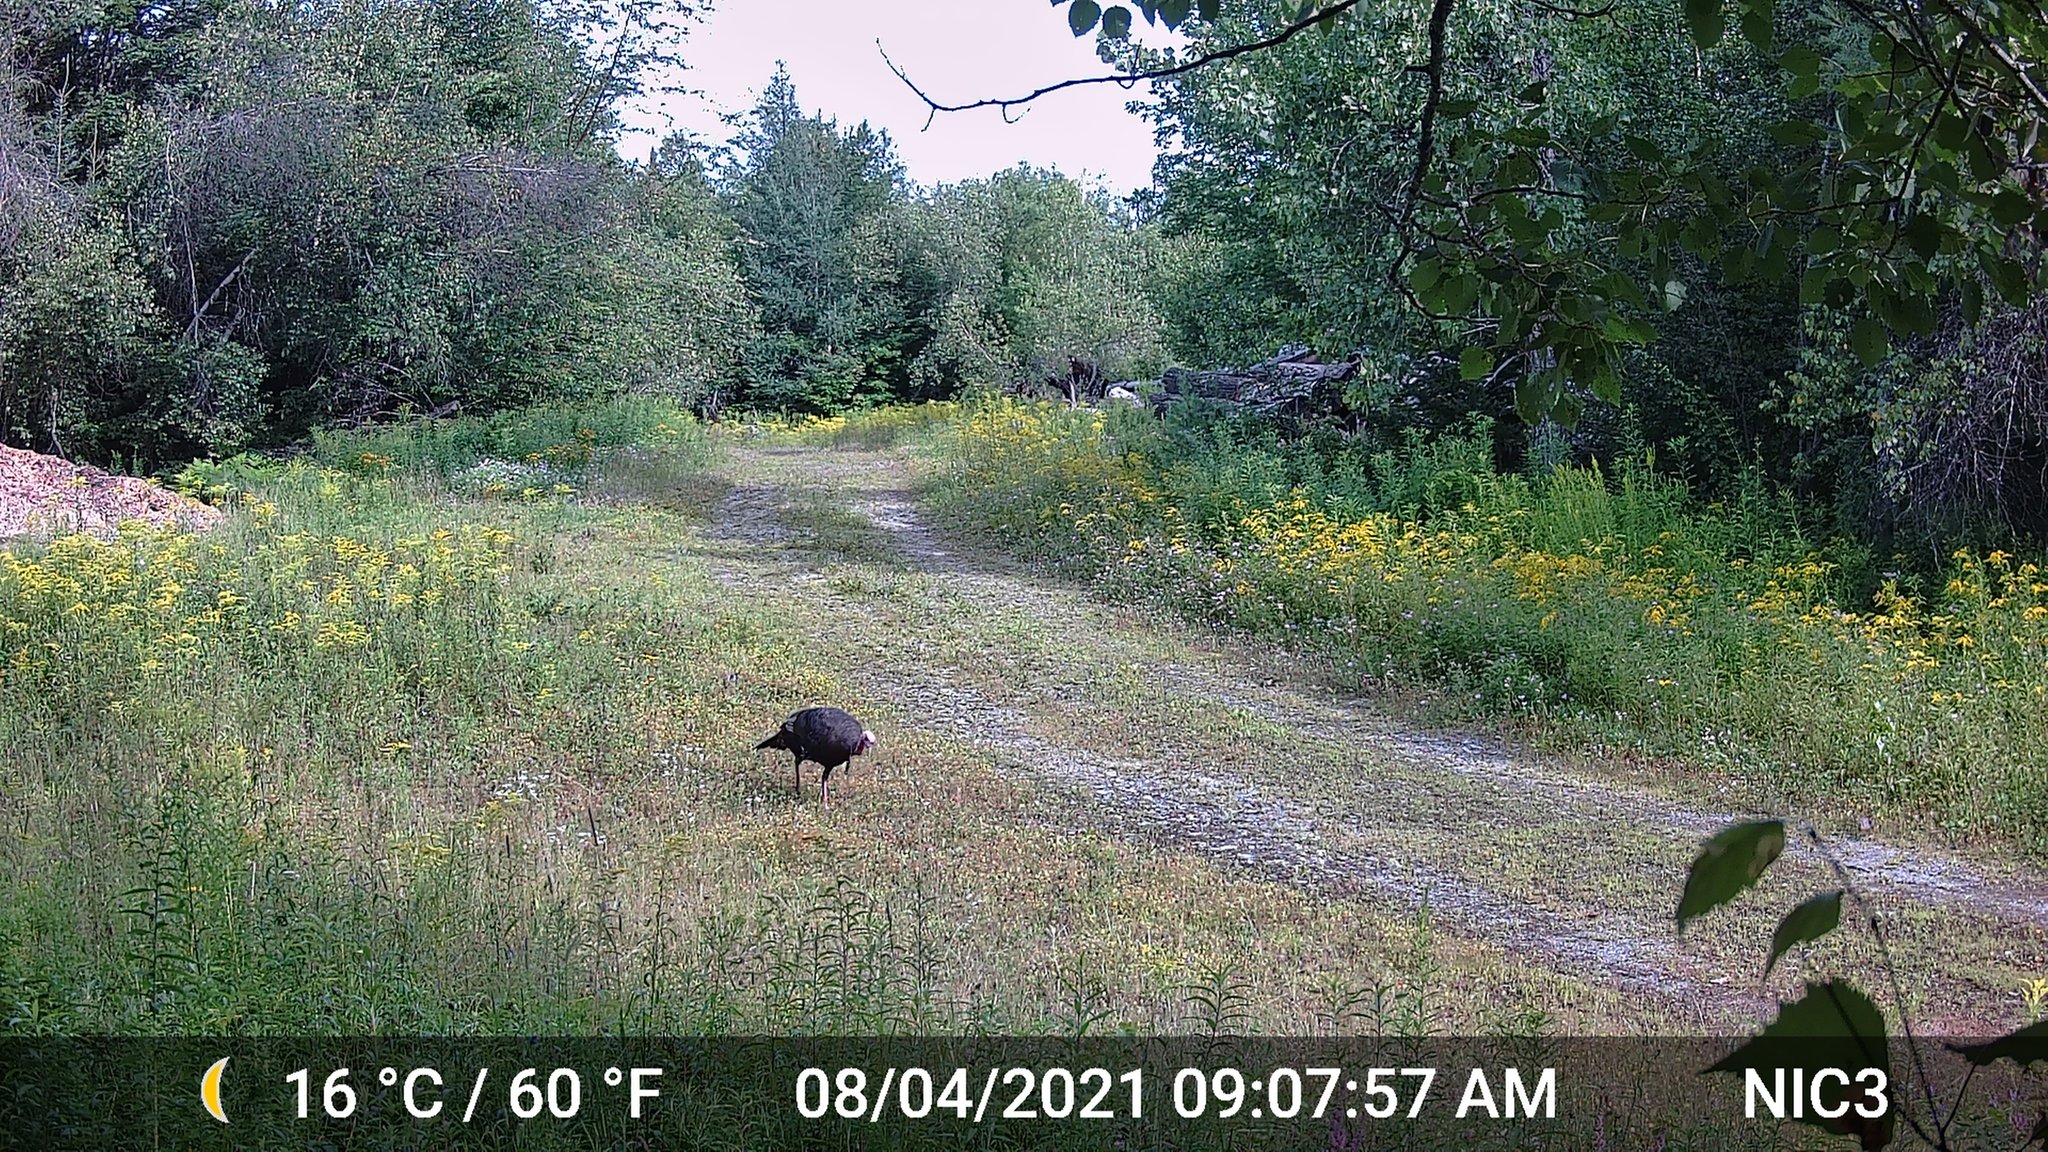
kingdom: Animalia
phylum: Chordata
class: Aves
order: Galliformes
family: Phasianidae
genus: Meleagris
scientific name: Meleagris gallopavo
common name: Wild turkey
